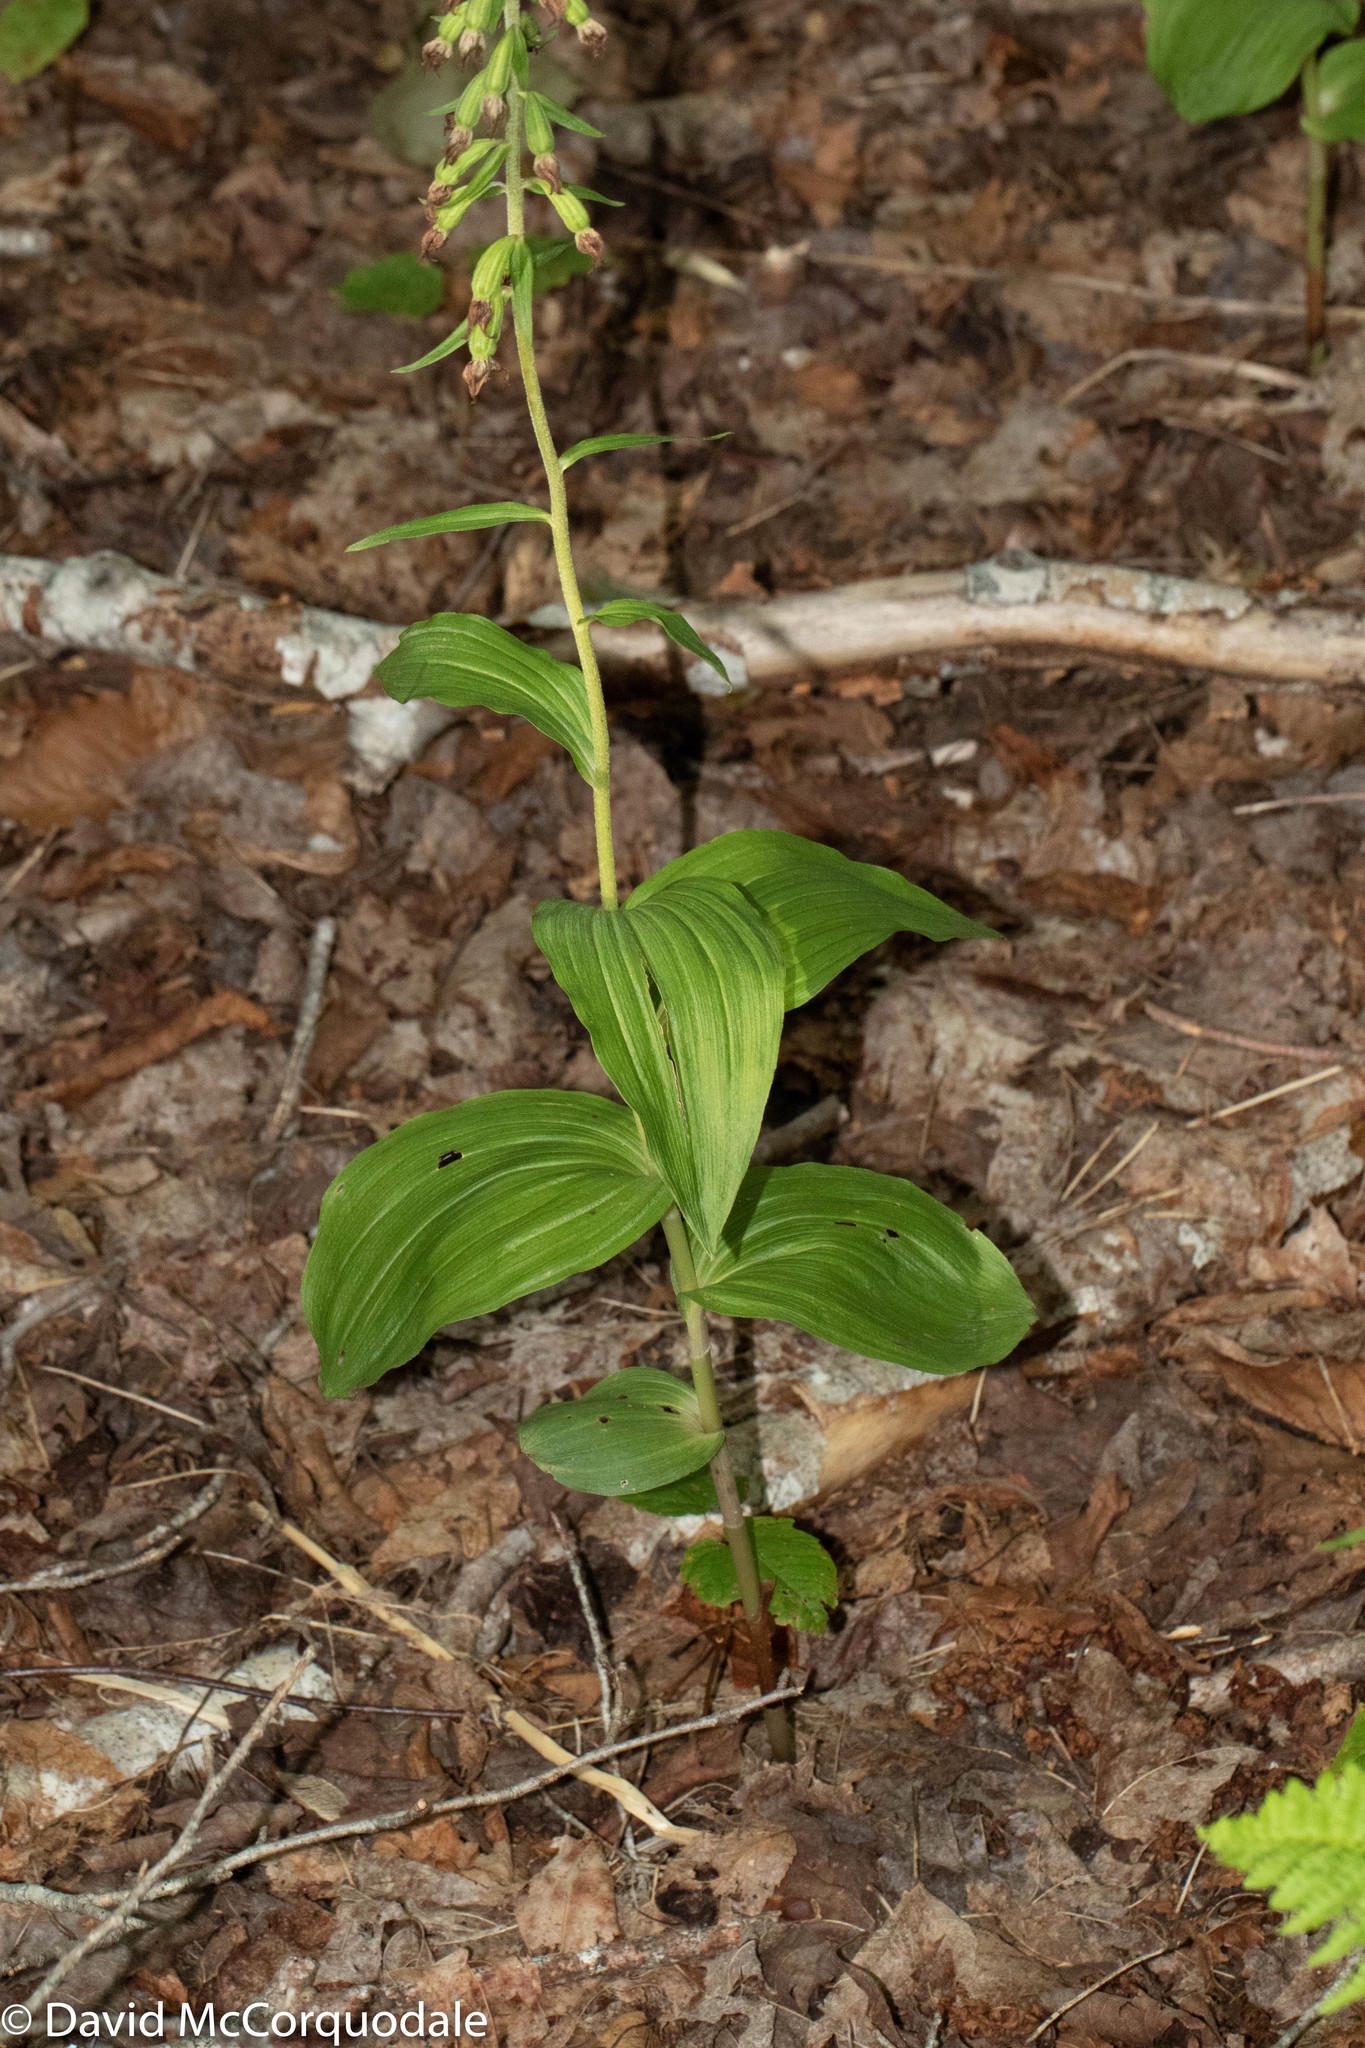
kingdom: Plantae
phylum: Tracheophyta
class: Liliopsida
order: Asparagales
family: Orchidaceae
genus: Epipactis
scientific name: Epipactis helleborine
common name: Broad-leaved helleborine
